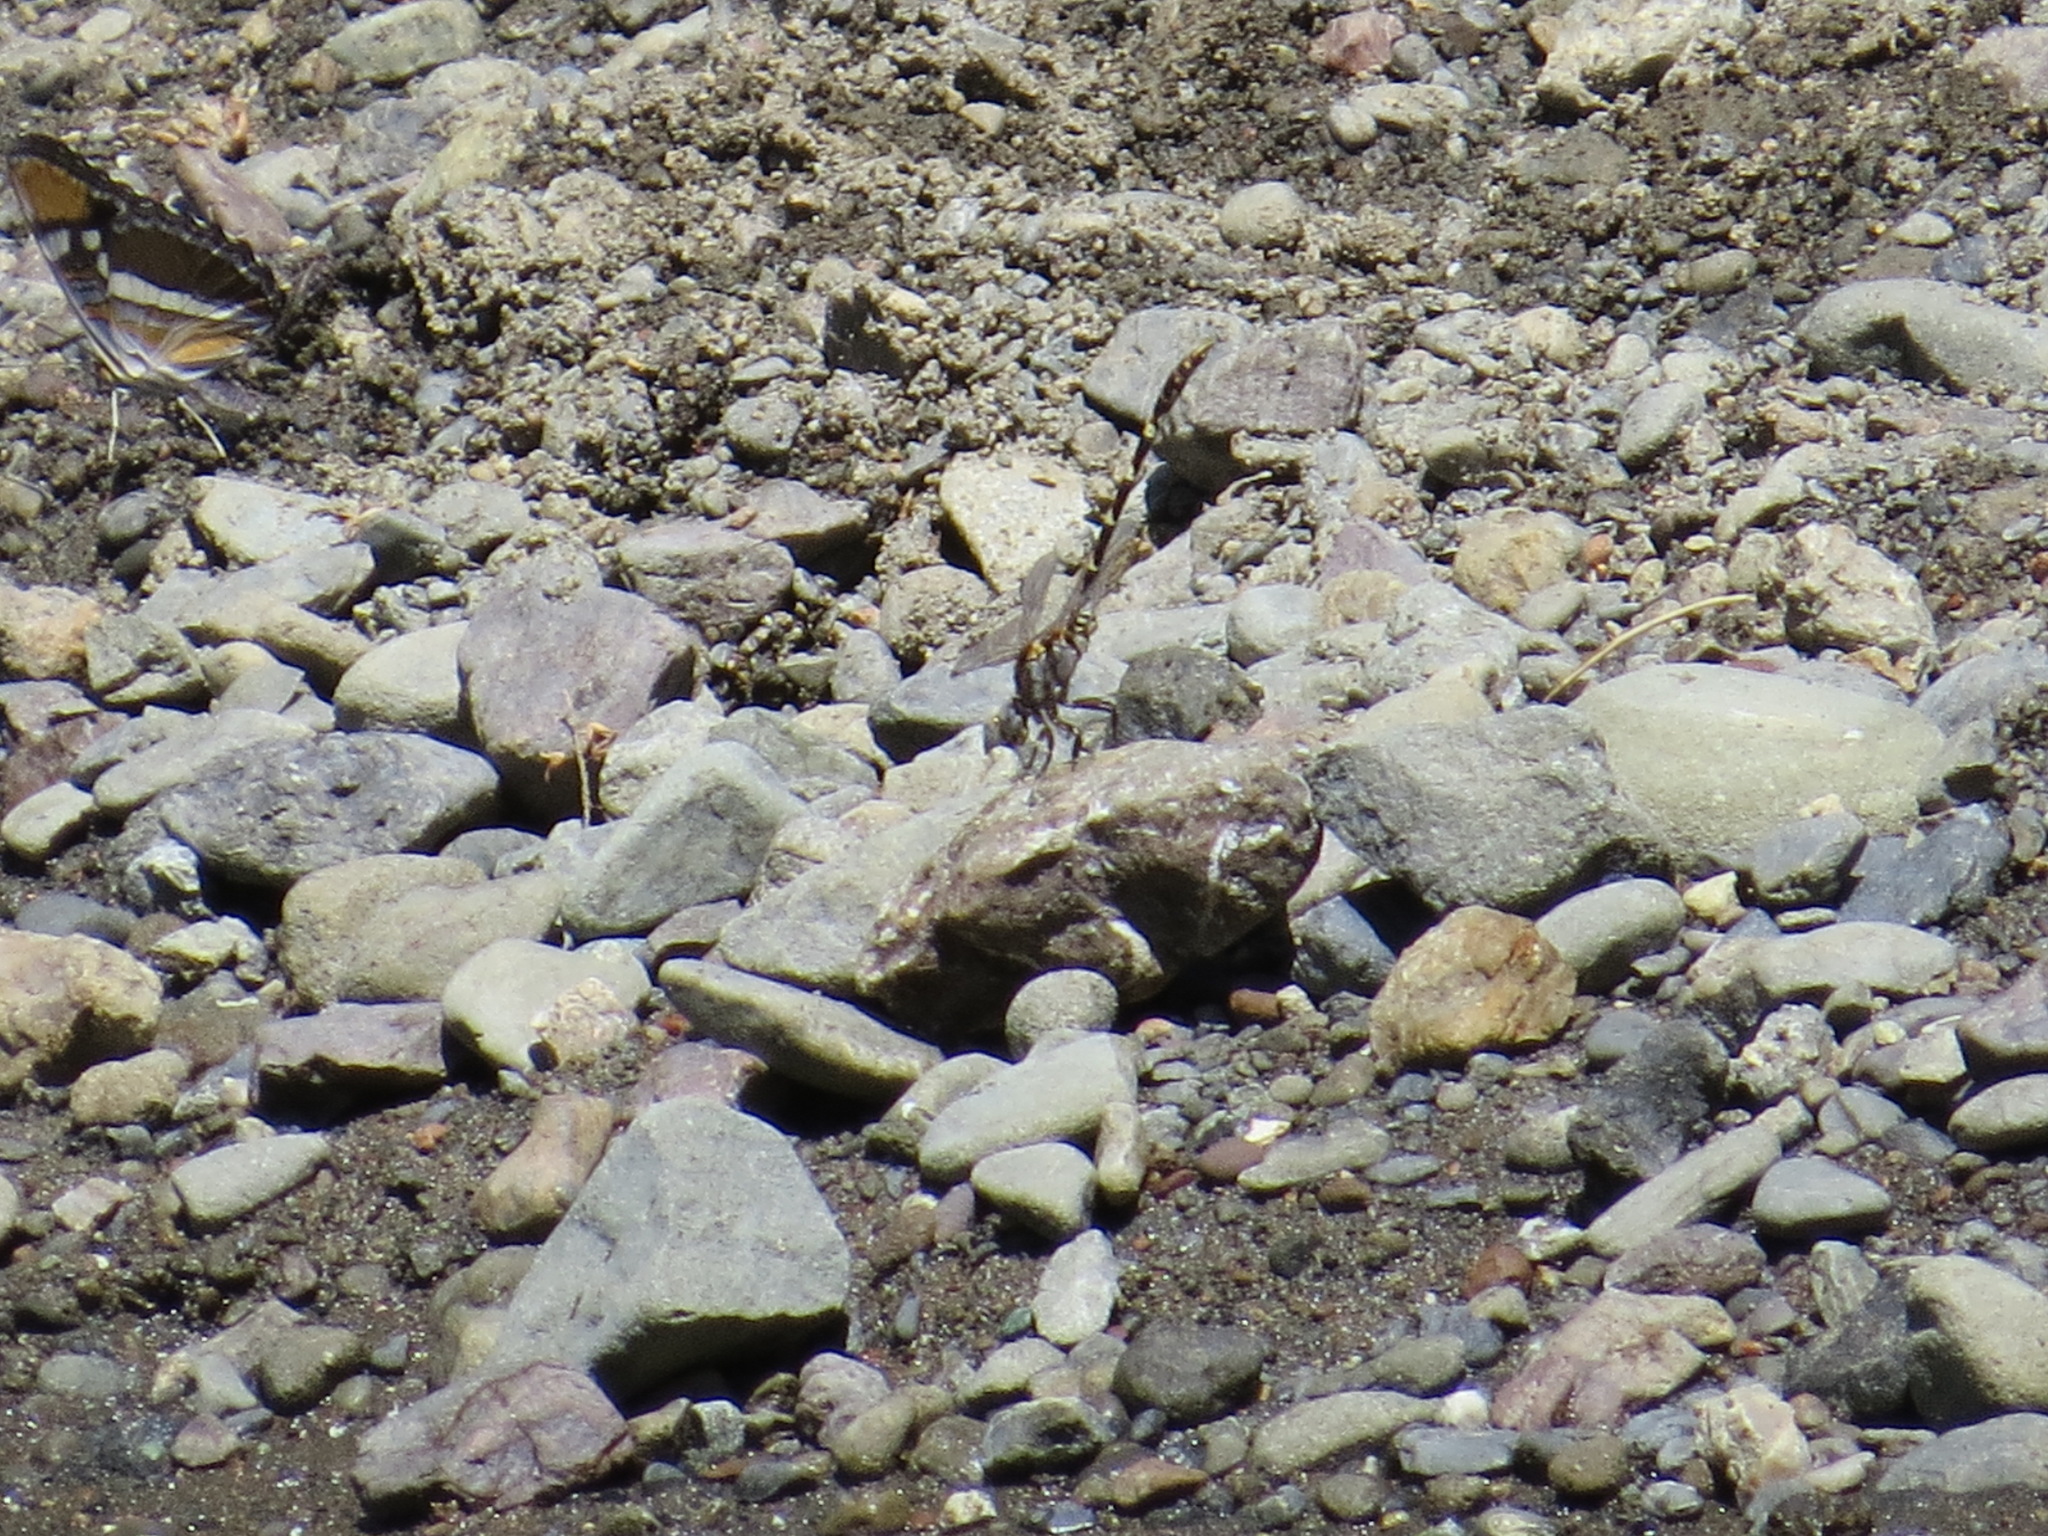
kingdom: Animalia
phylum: Arthropoda
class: Insecta
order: Odonata
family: Gomphidae
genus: Progomphus
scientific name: Progomphus borealis
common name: Gray sanddragon
